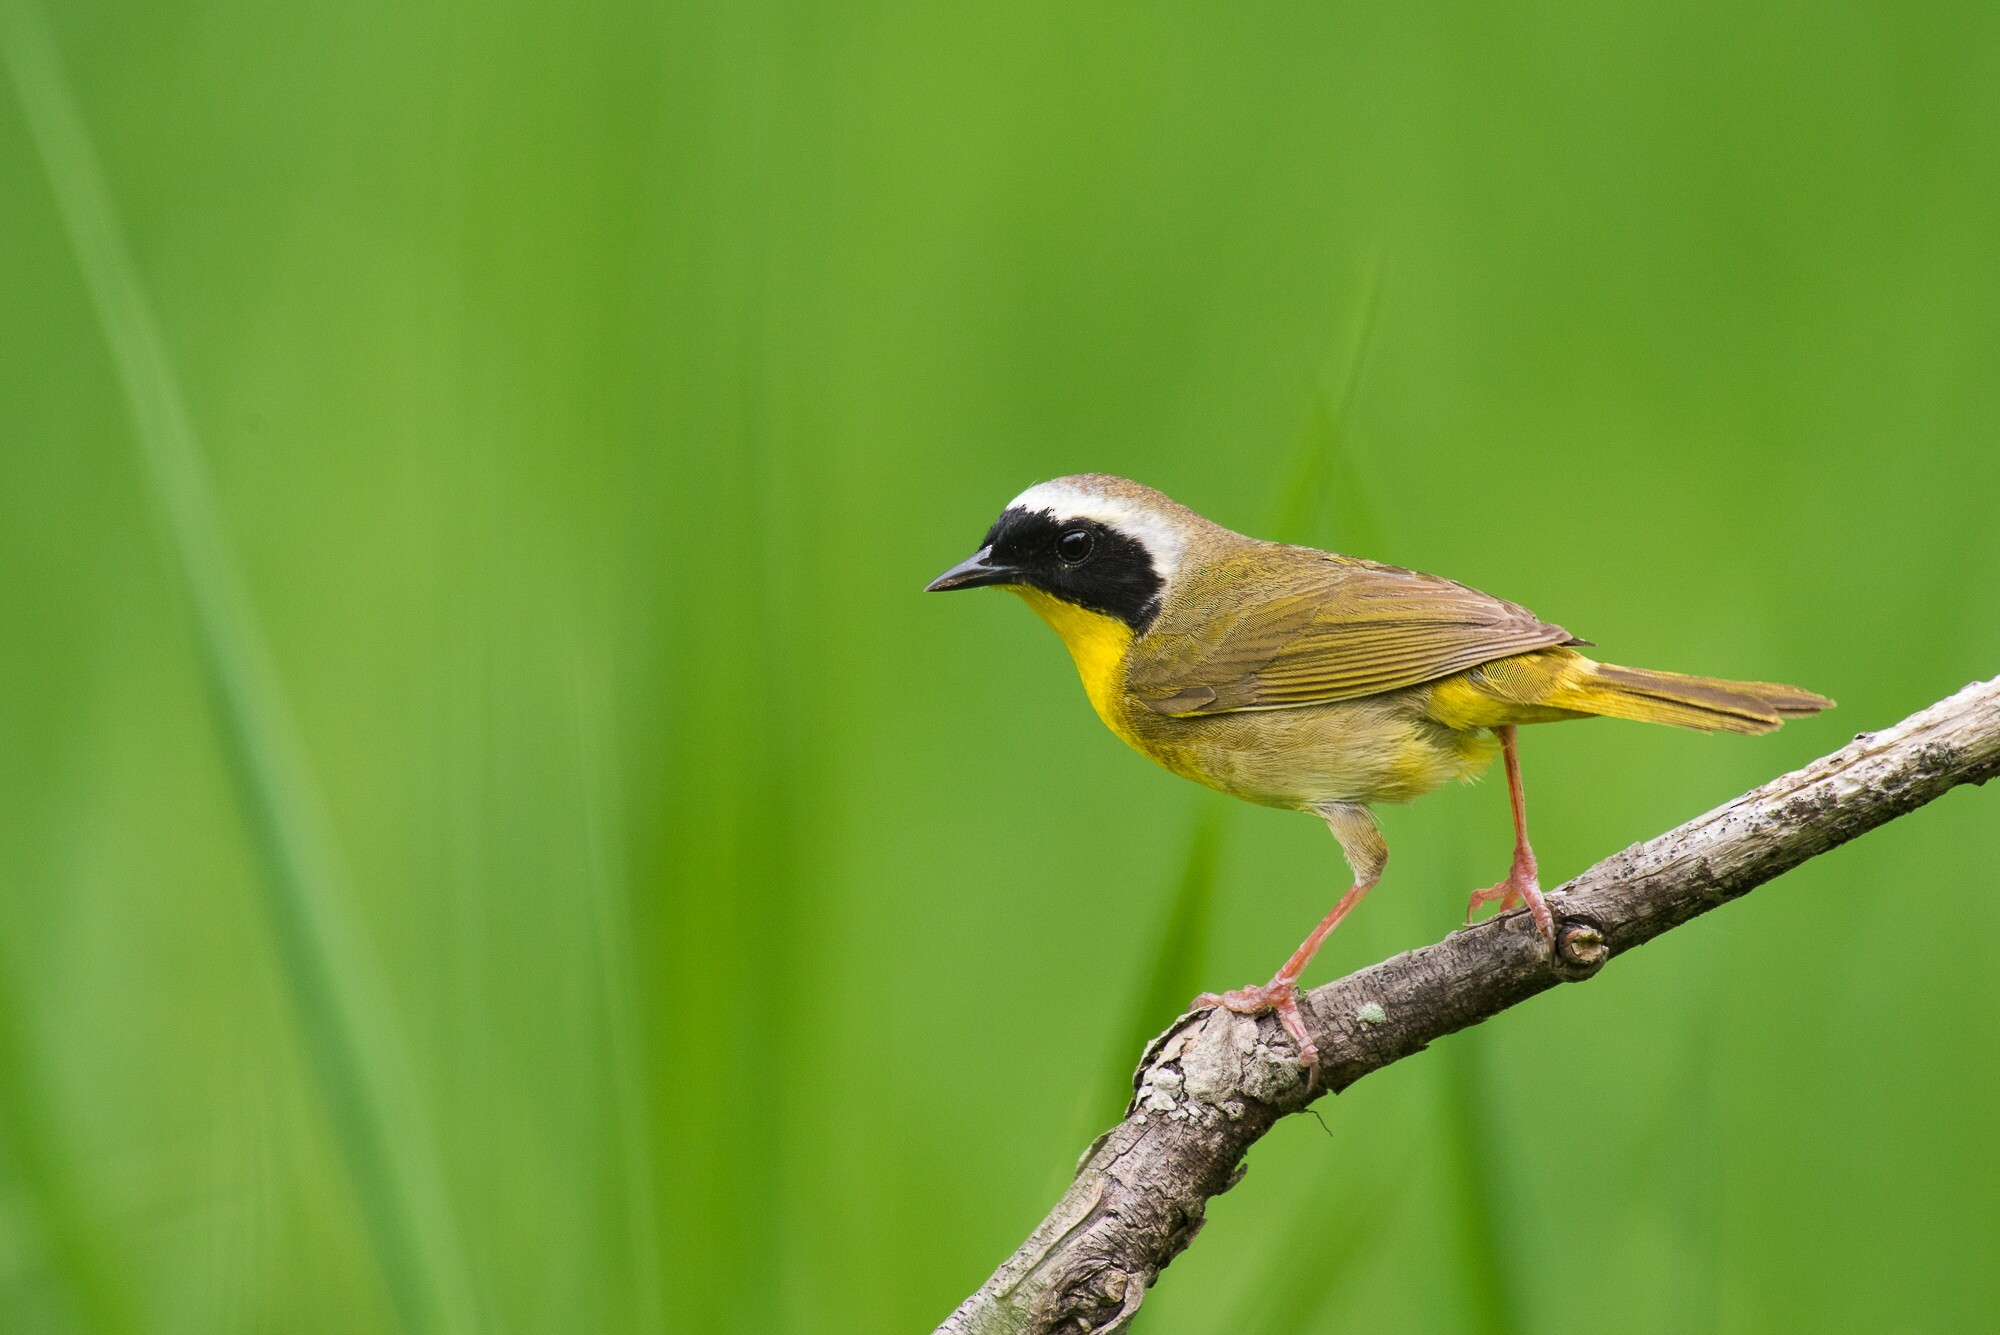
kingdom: Animalia
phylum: Chordata
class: Aves
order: Passeriformes
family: Parulidae
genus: Geothlypis
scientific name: Geothlypis trichas
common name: Common yellowthroat
